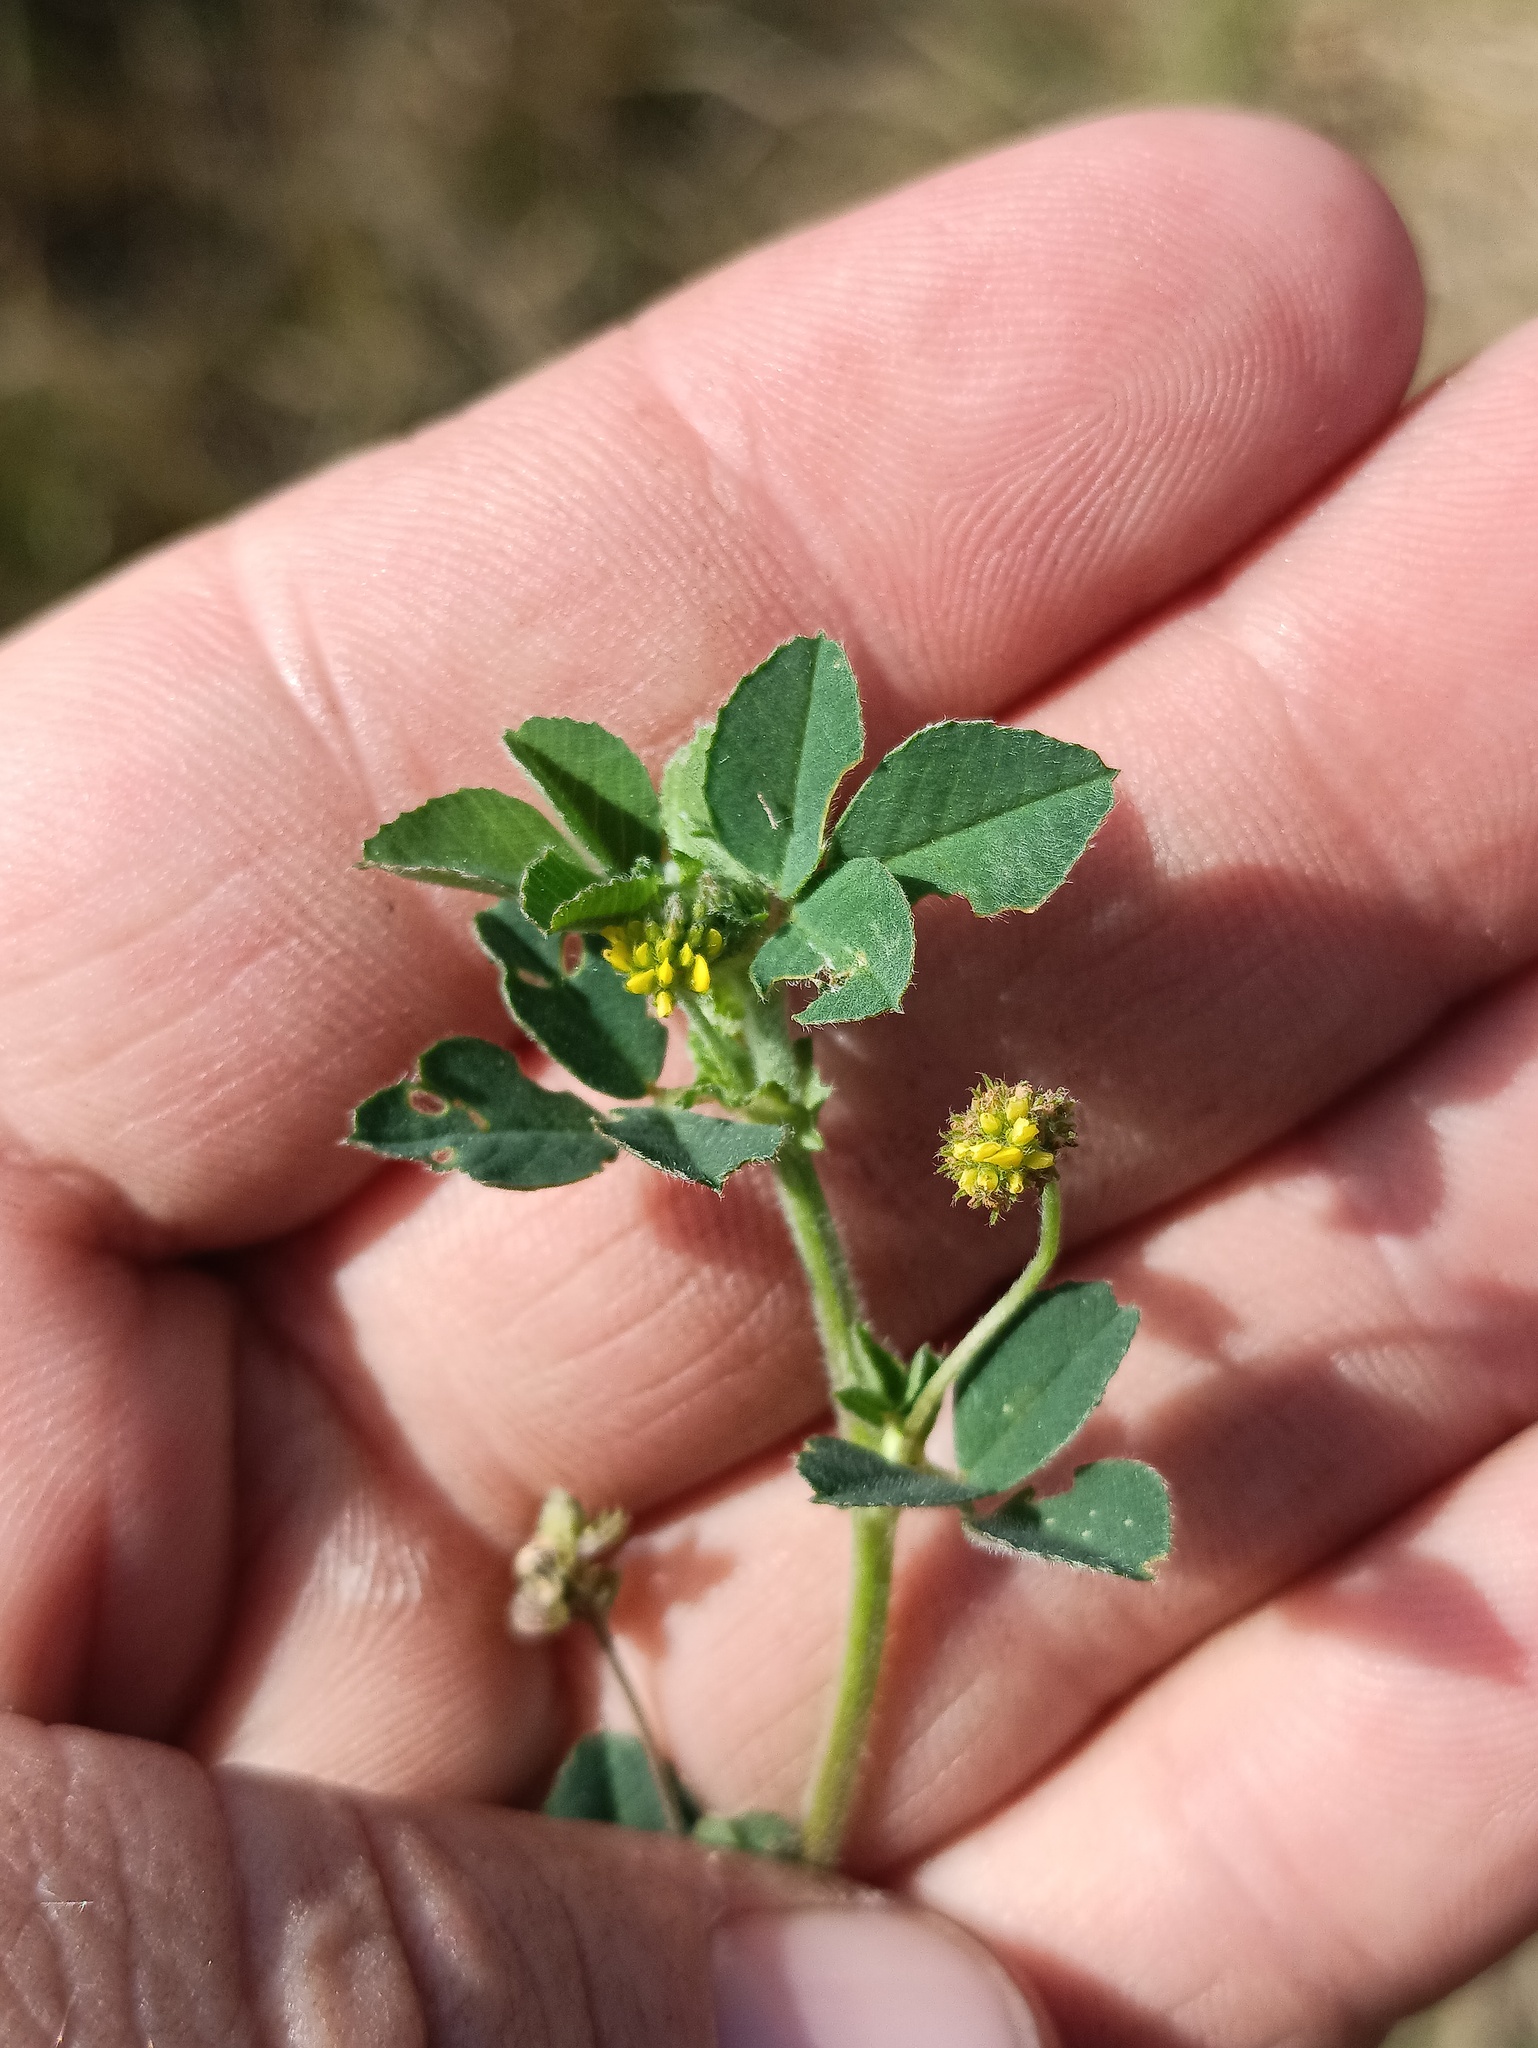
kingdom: Plantae
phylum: Tracheophyta
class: Magnoliopsida
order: Fabales
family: Fabaceae
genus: Medicago
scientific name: Medicago lupulina
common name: Black medick
